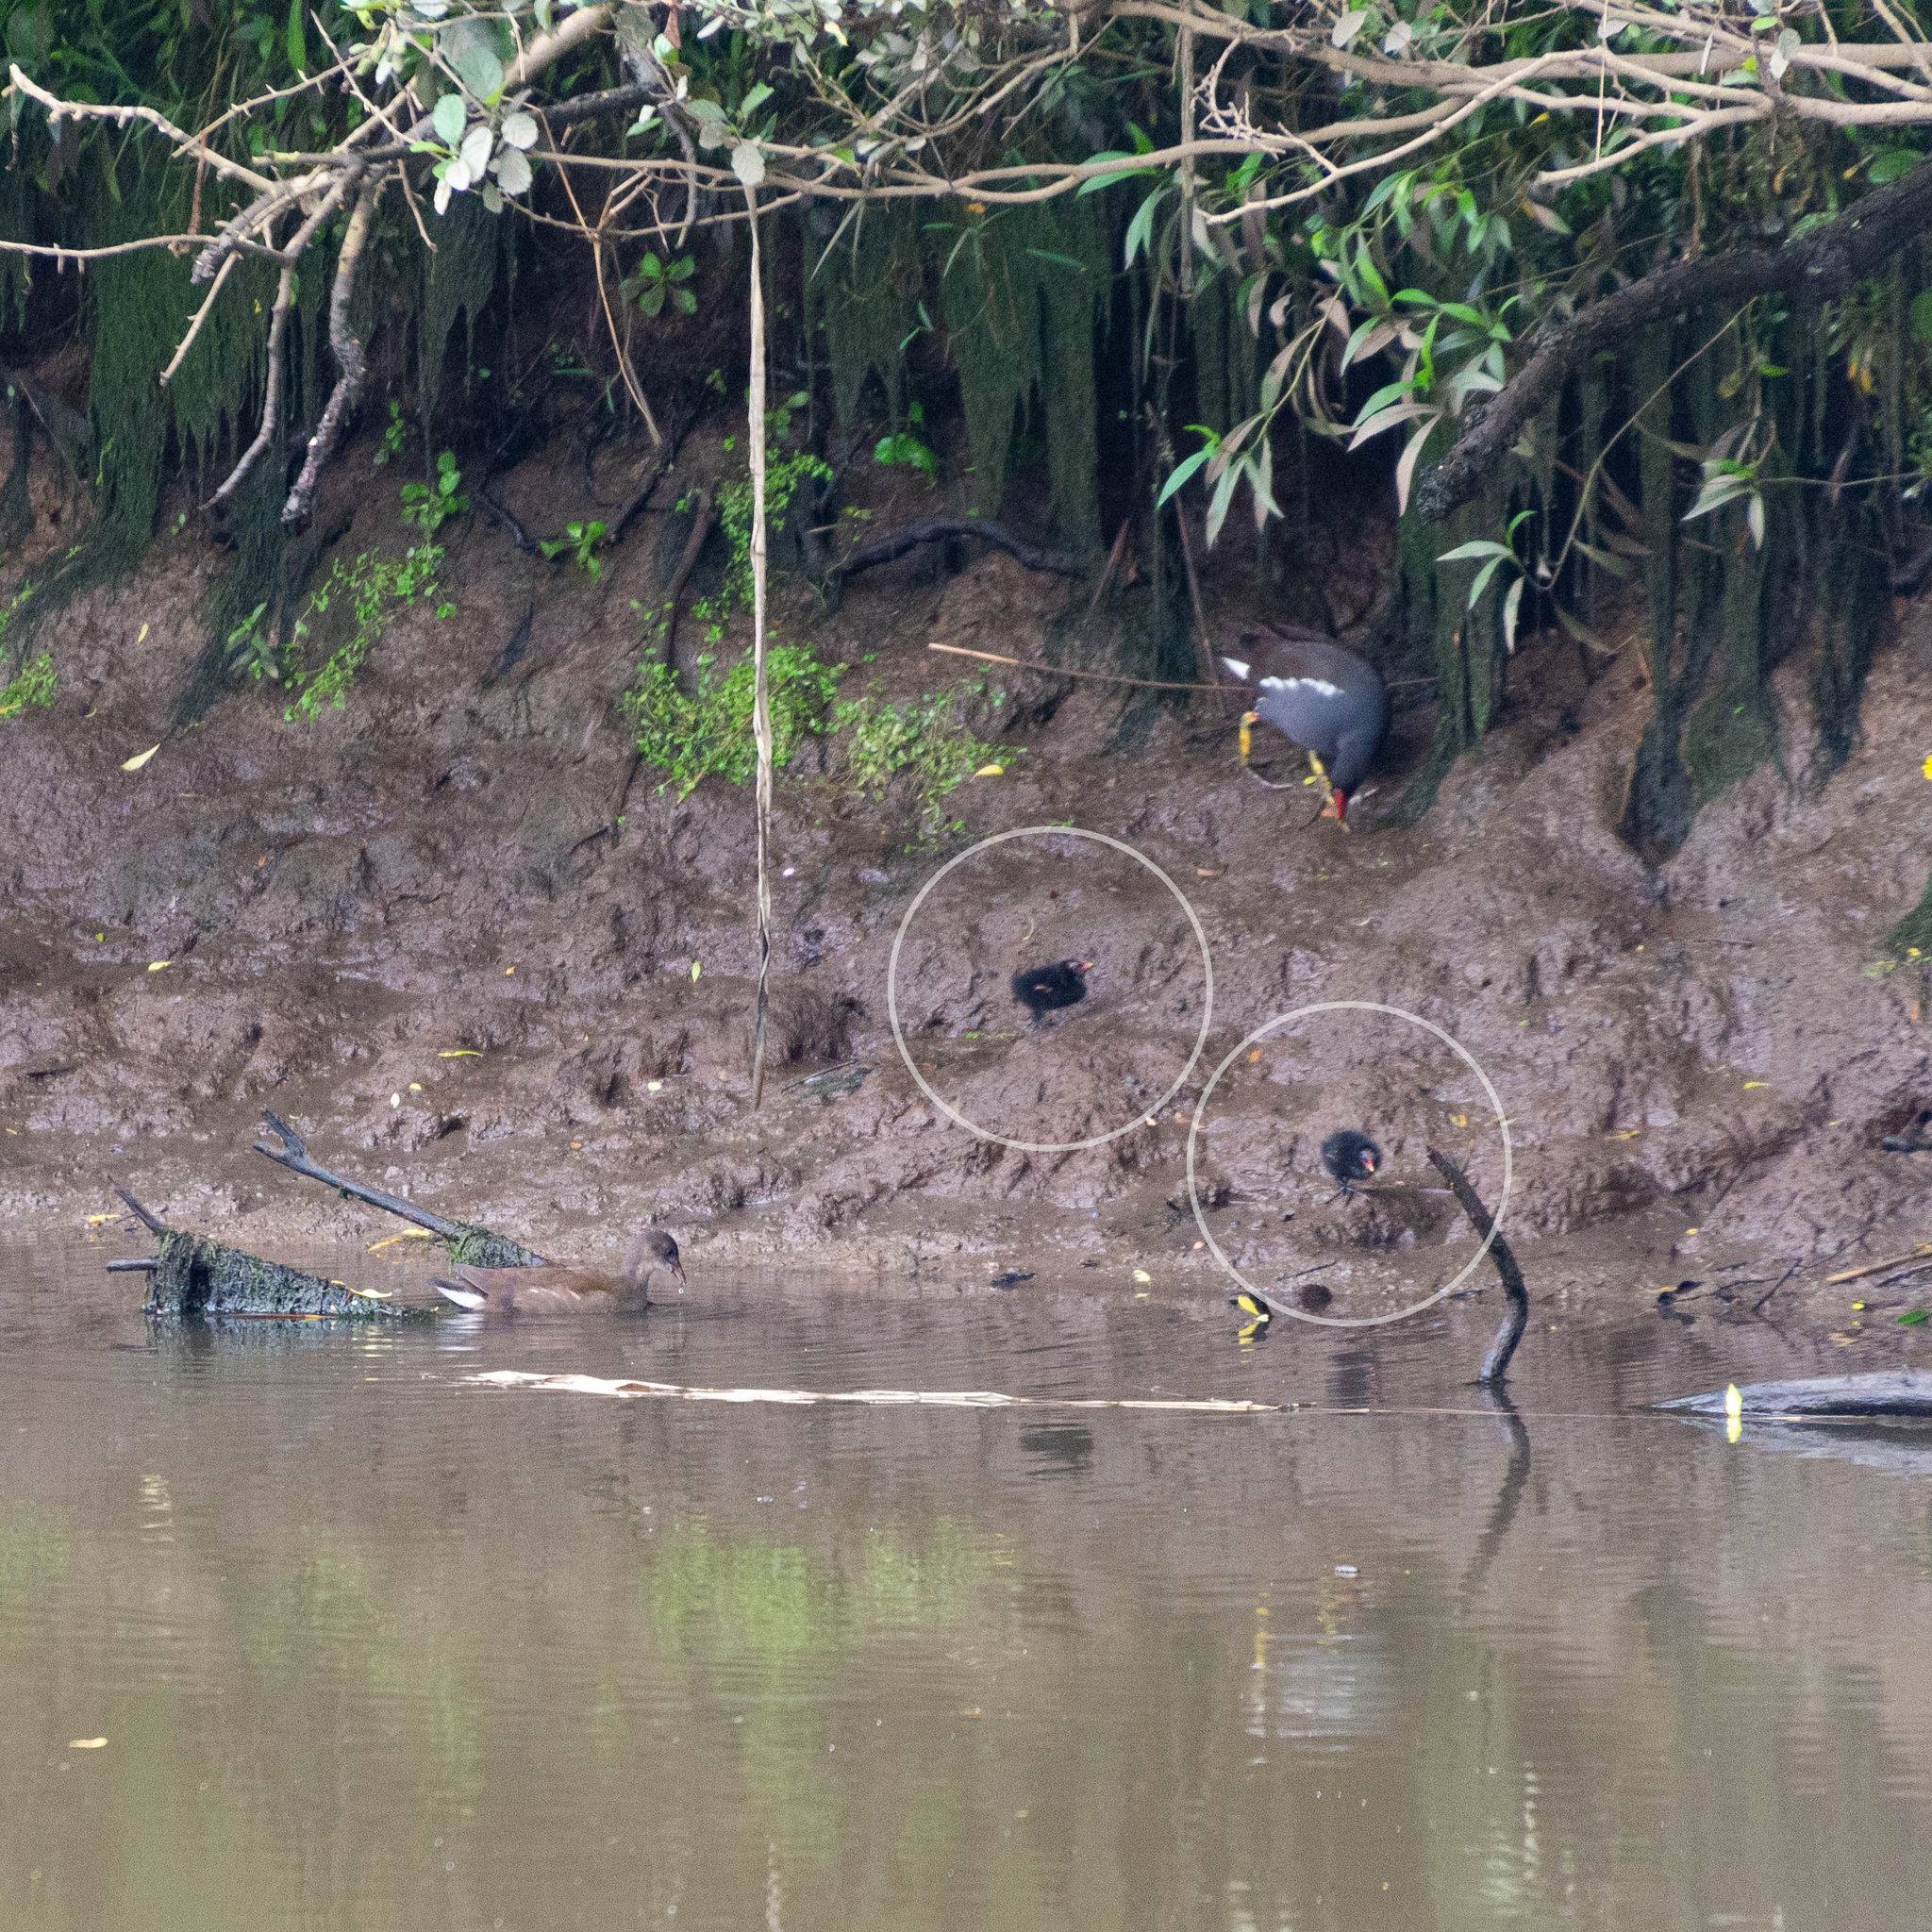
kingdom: Animalia
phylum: Chordata
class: Aves
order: Gruiformes
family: Rallidae
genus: Gallinula
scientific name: Gallinula chloropus
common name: Common moorhen
